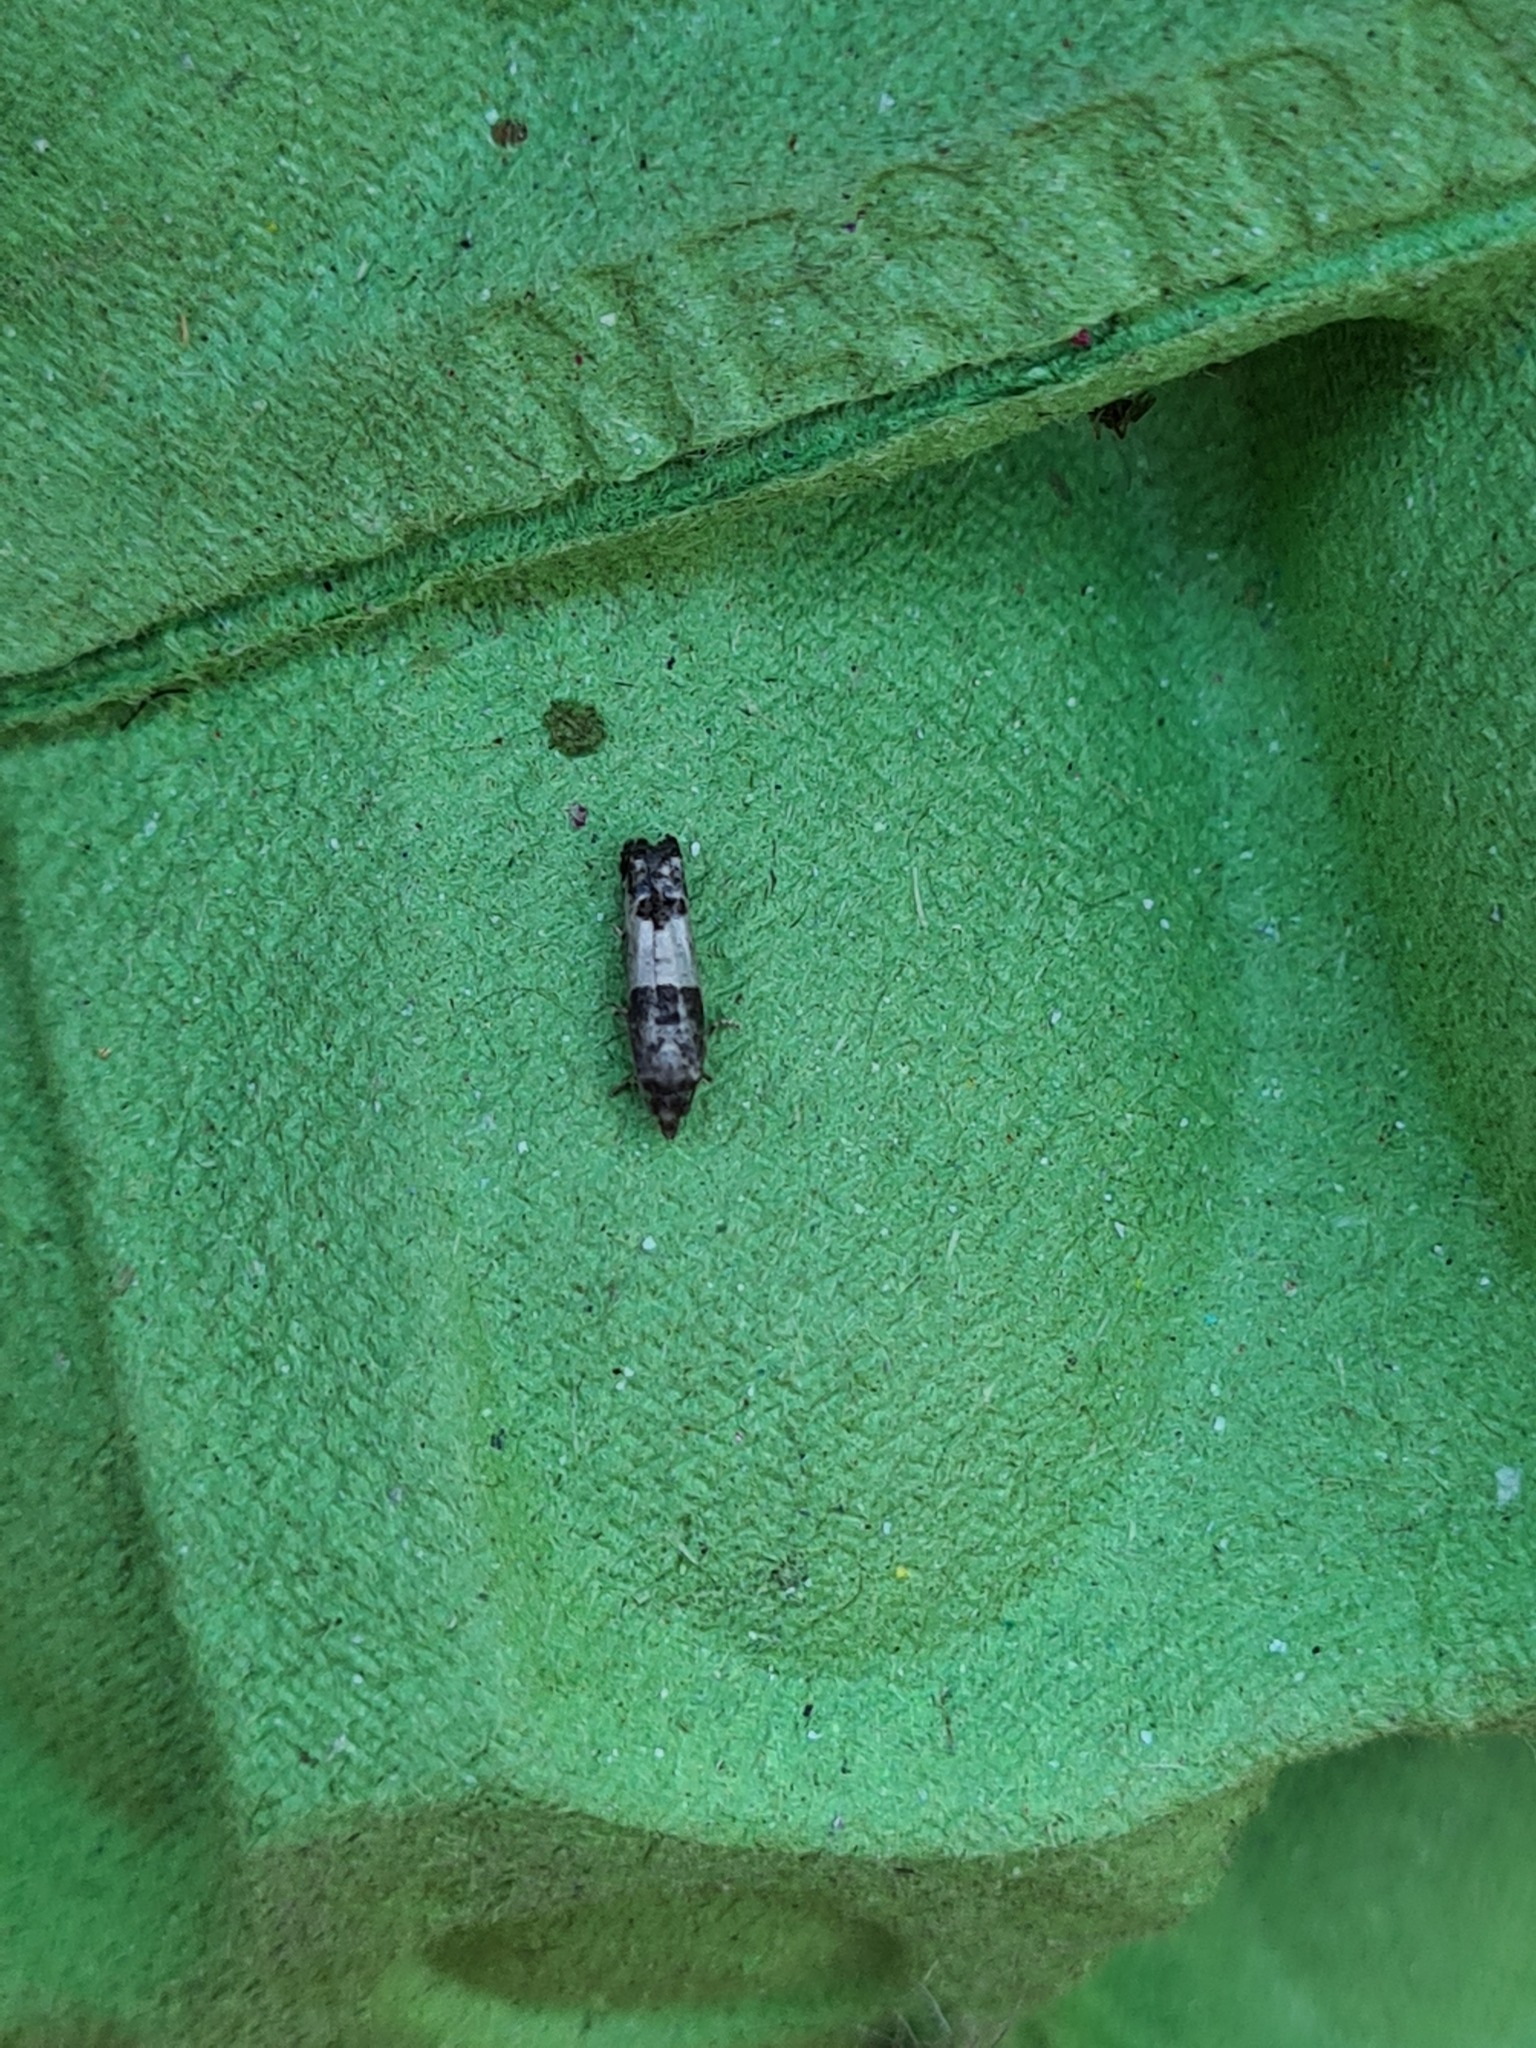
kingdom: Animalia
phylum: Arthropoda
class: Insecta
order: Lepidoptera
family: Tortricidae
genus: Spilonota
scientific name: Spilonota ocellana
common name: Bud moth
